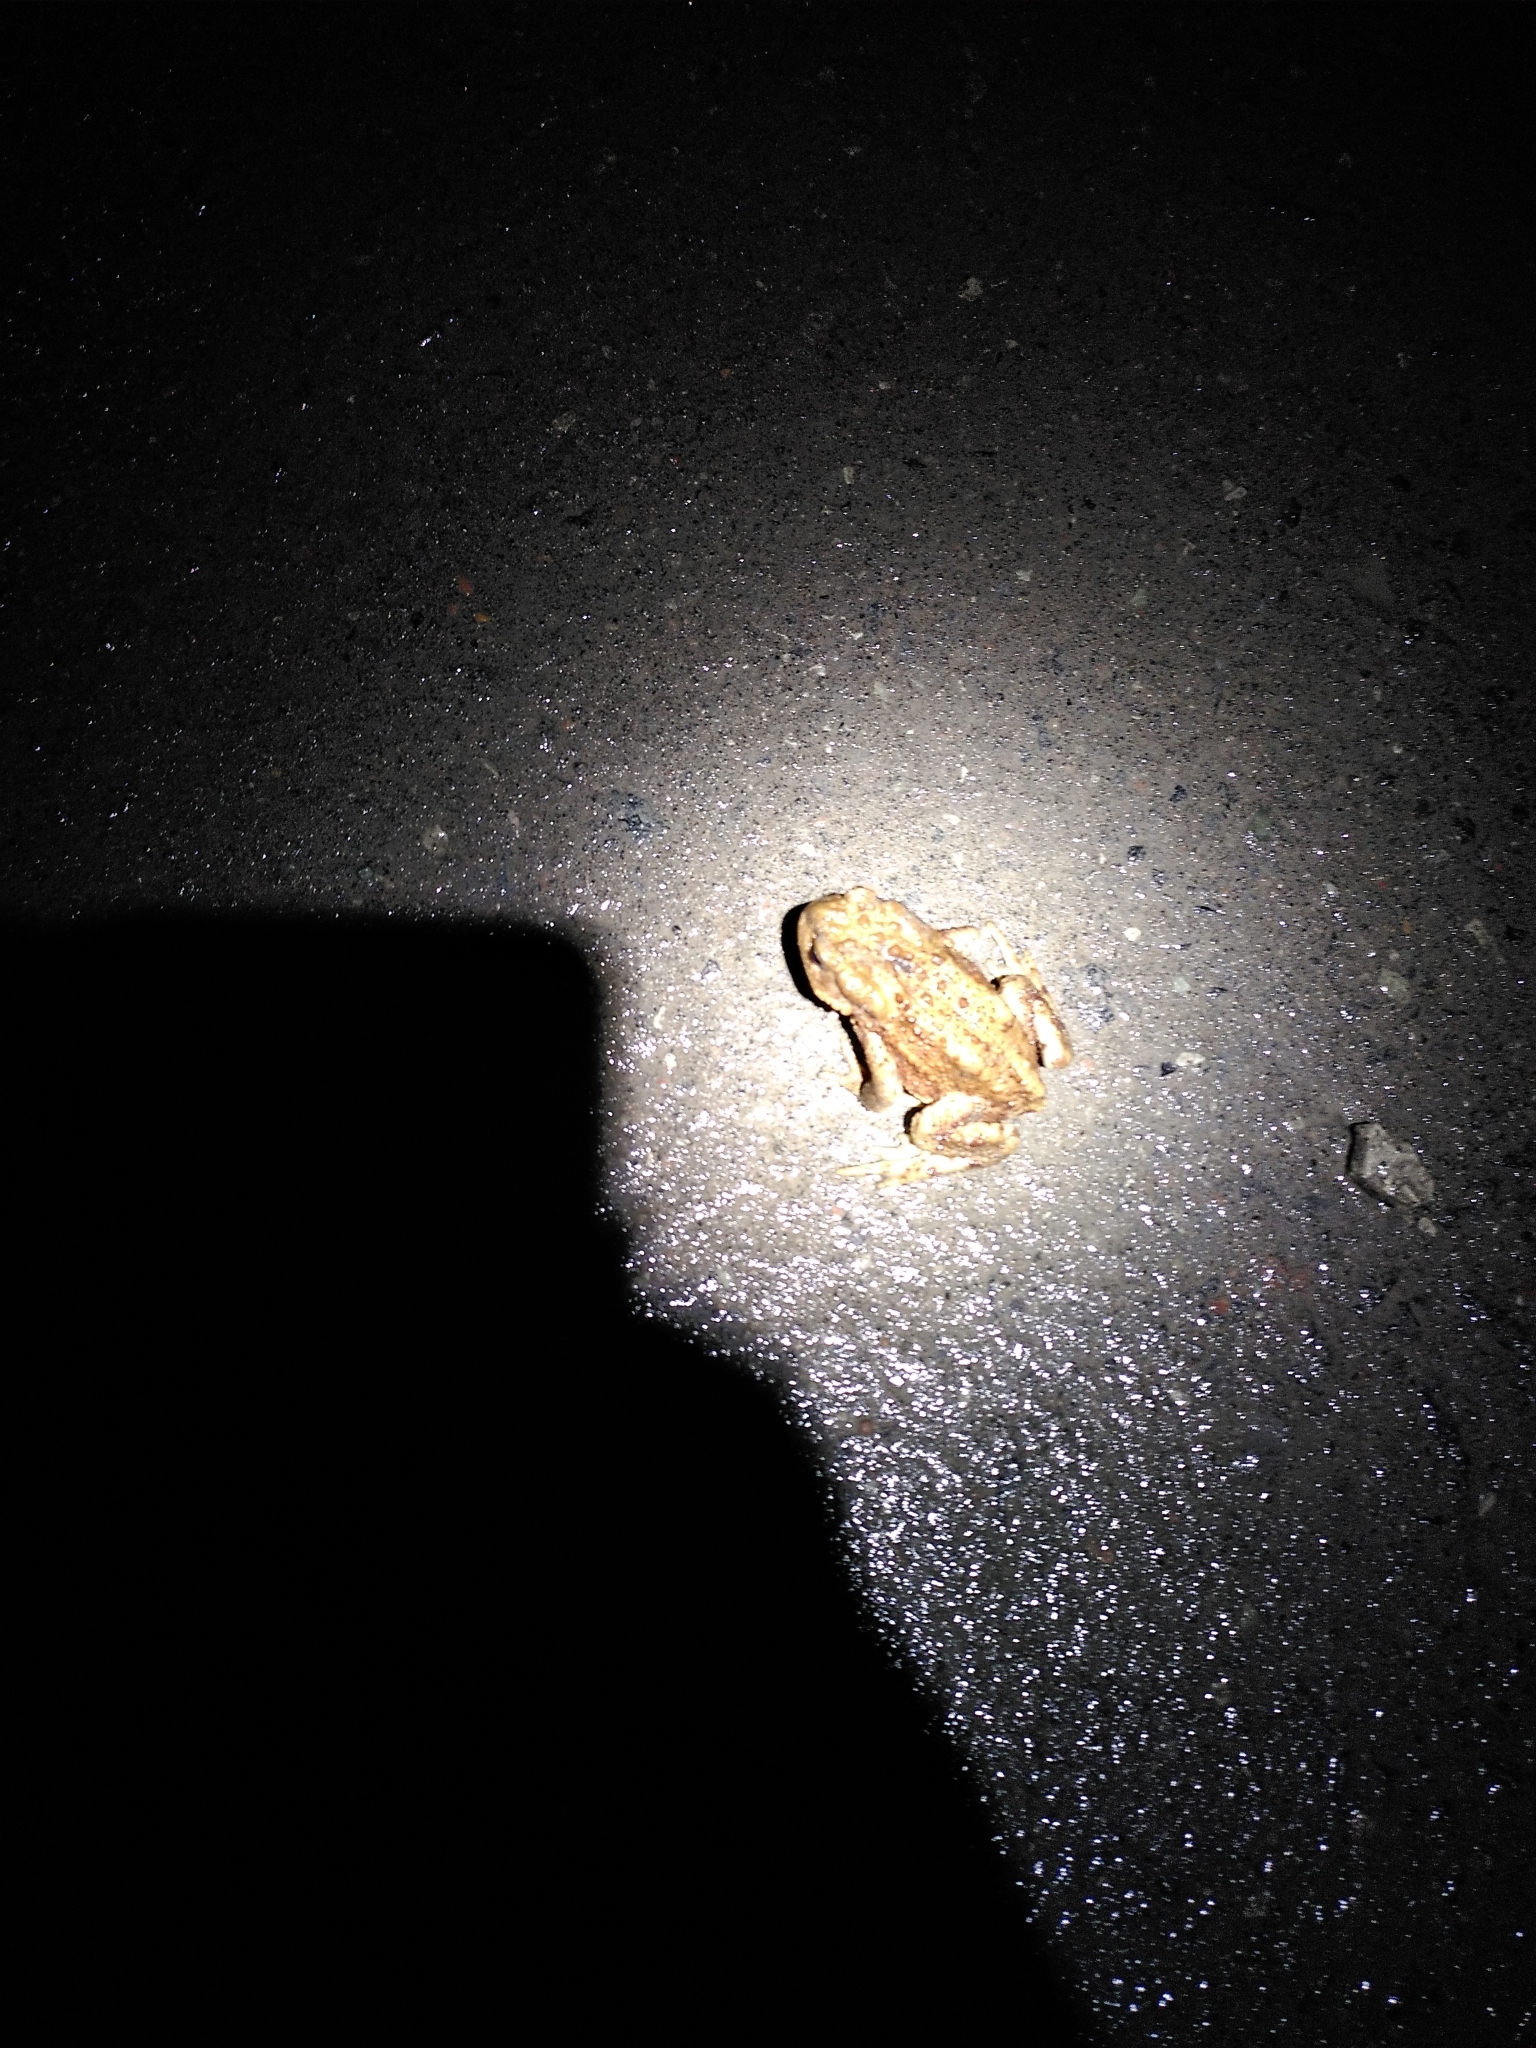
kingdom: Animalia
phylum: Chordata
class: Amphibia
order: Anura
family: Bufonidae
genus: Bufo
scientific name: Bufo bufo
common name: Common toad
